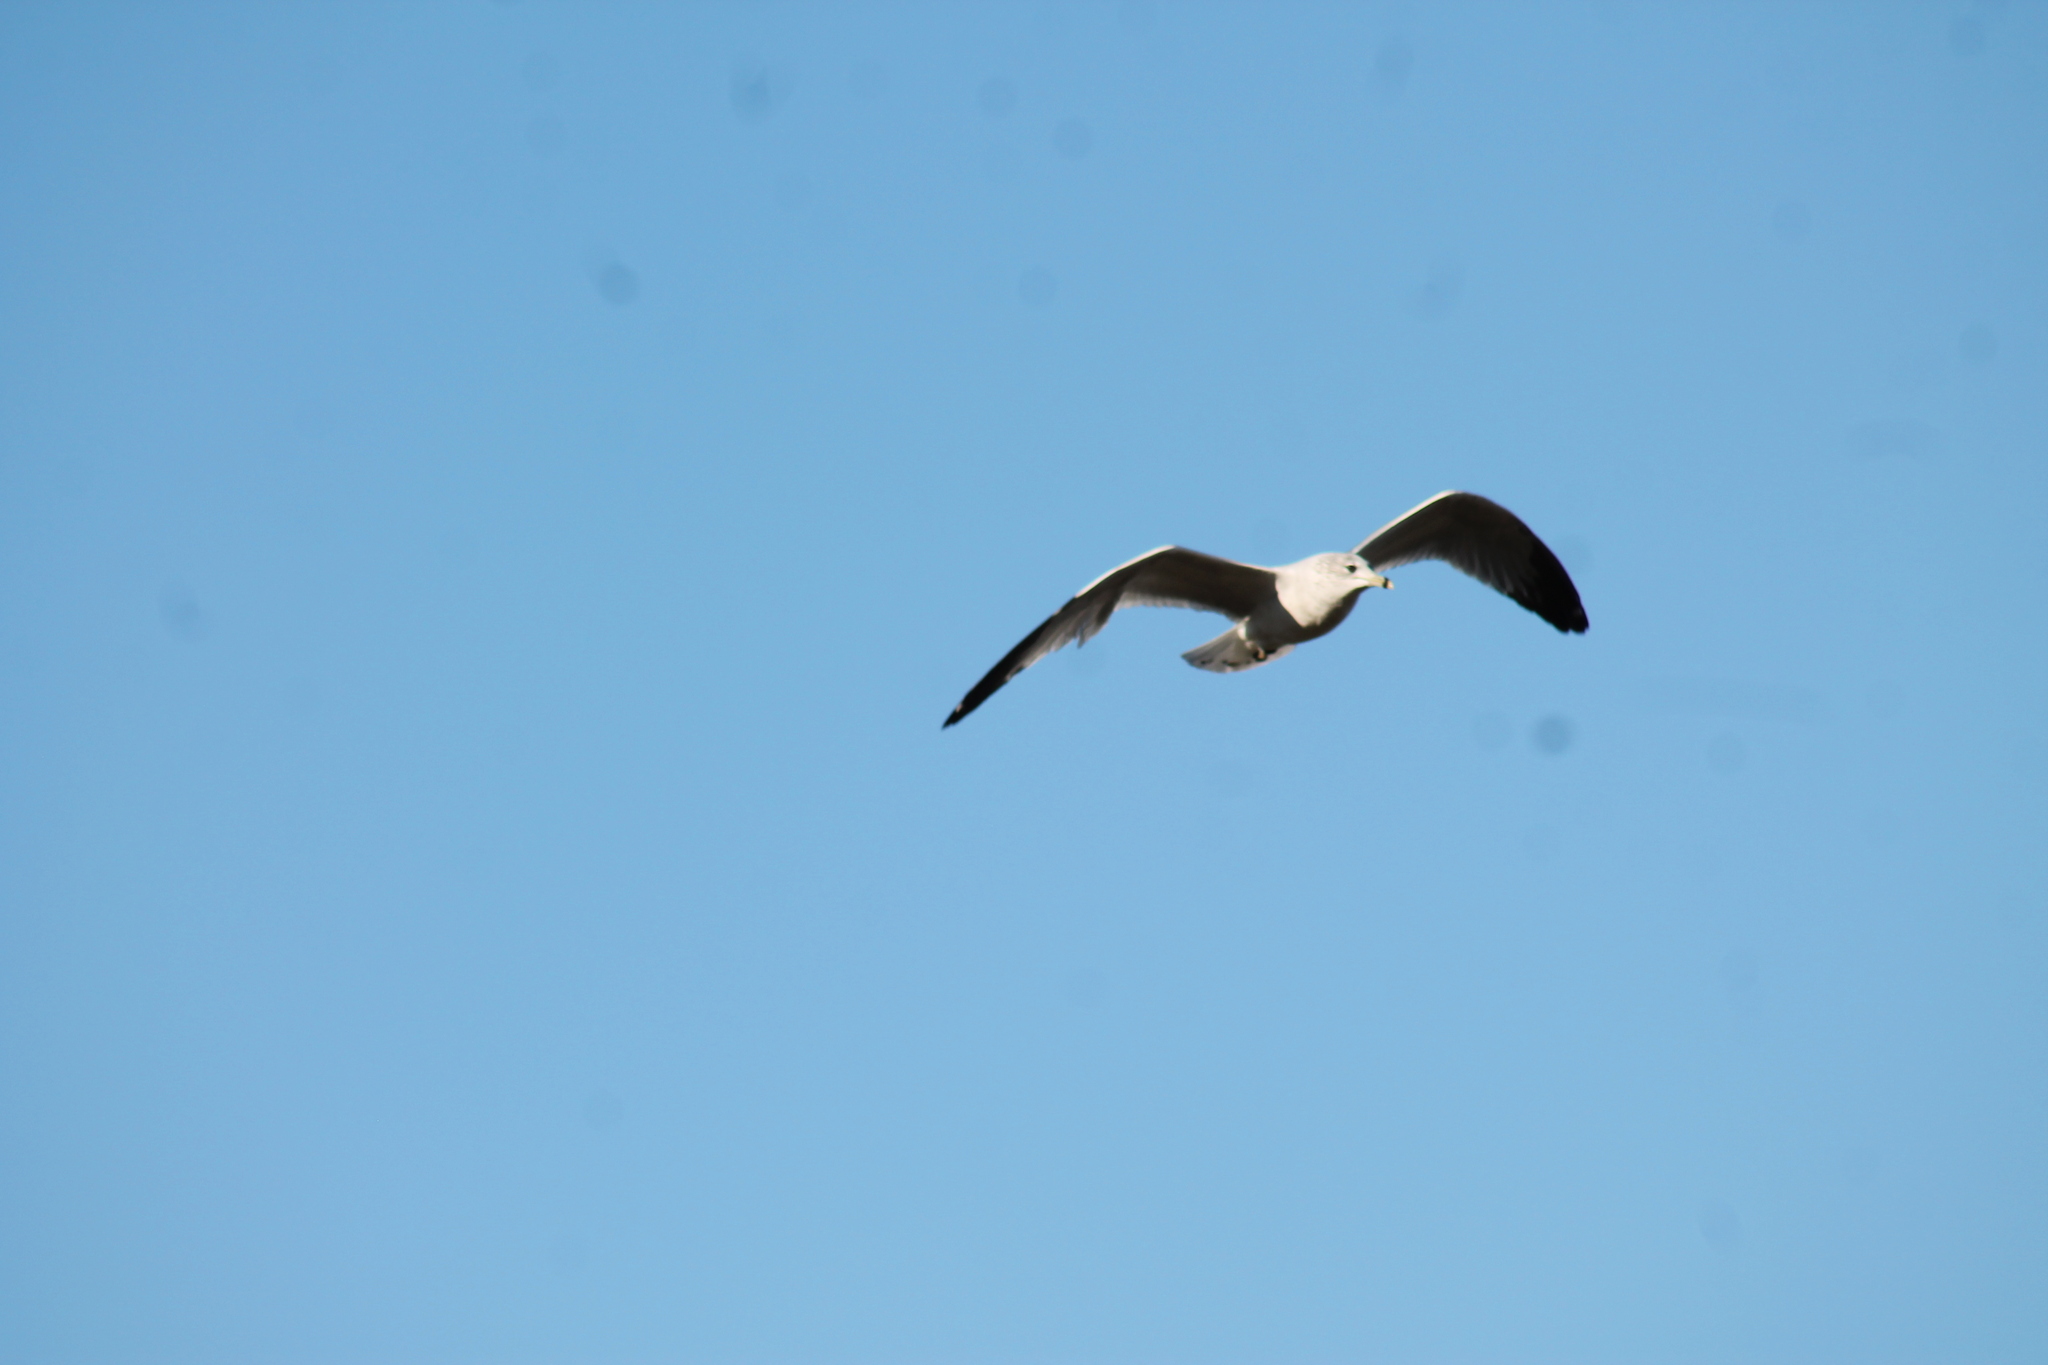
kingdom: Animalia
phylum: Chordata
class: Aves
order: Charadriiformes
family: Laridae
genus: Larus
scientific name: Larus delawarensis
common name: Ring-billed gull
